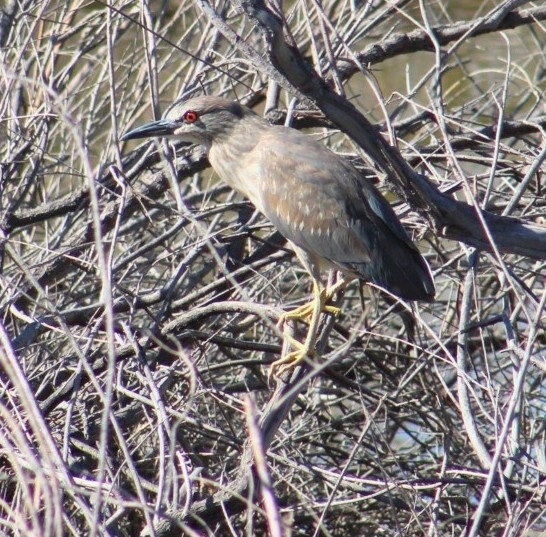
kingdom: Animalia
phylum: Chordata
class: Aves
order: Pelecaniformes
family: Ardeidae
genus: Nycticorax
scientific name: Nycticorax nycticorax
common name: Black-crowned night heron
